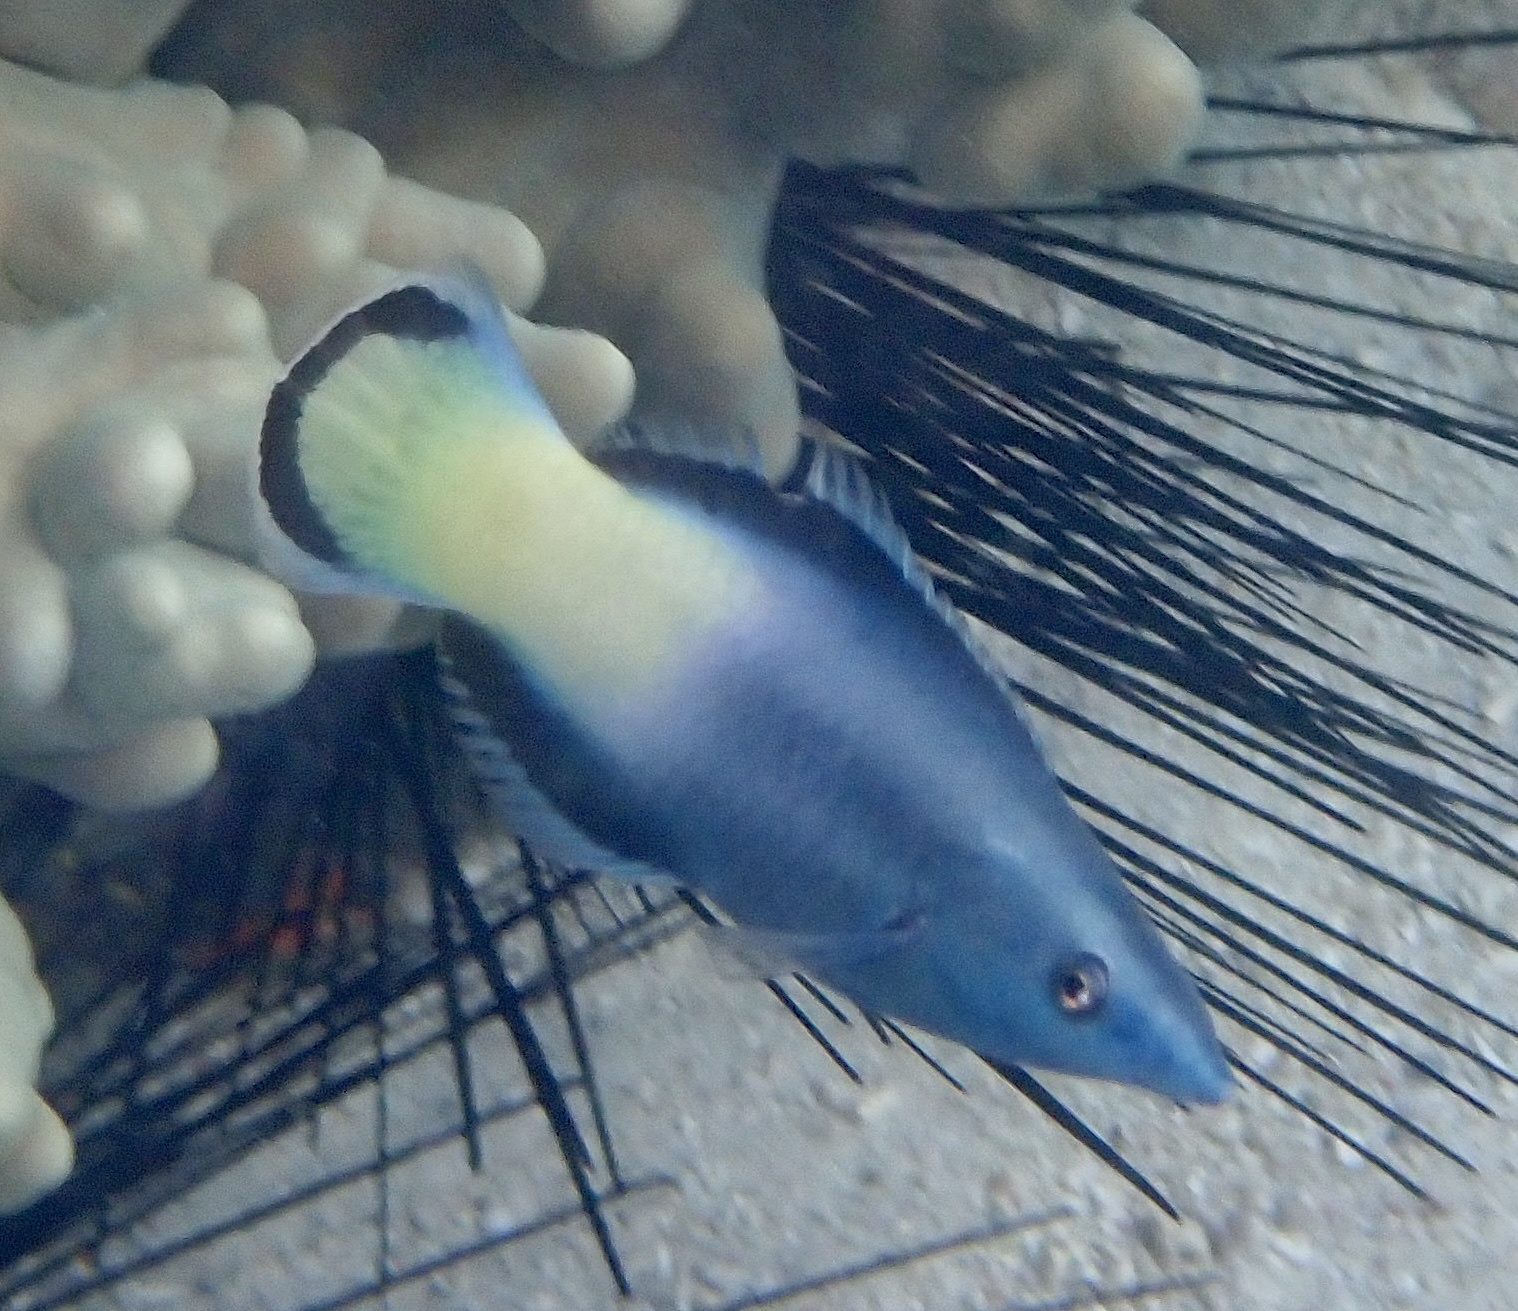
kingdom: Animalia
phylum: Chordata
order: Perciformes
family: Labridae
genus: Labroides
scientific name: Labroides bicolor
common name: Bicolor cleaner wrasse
